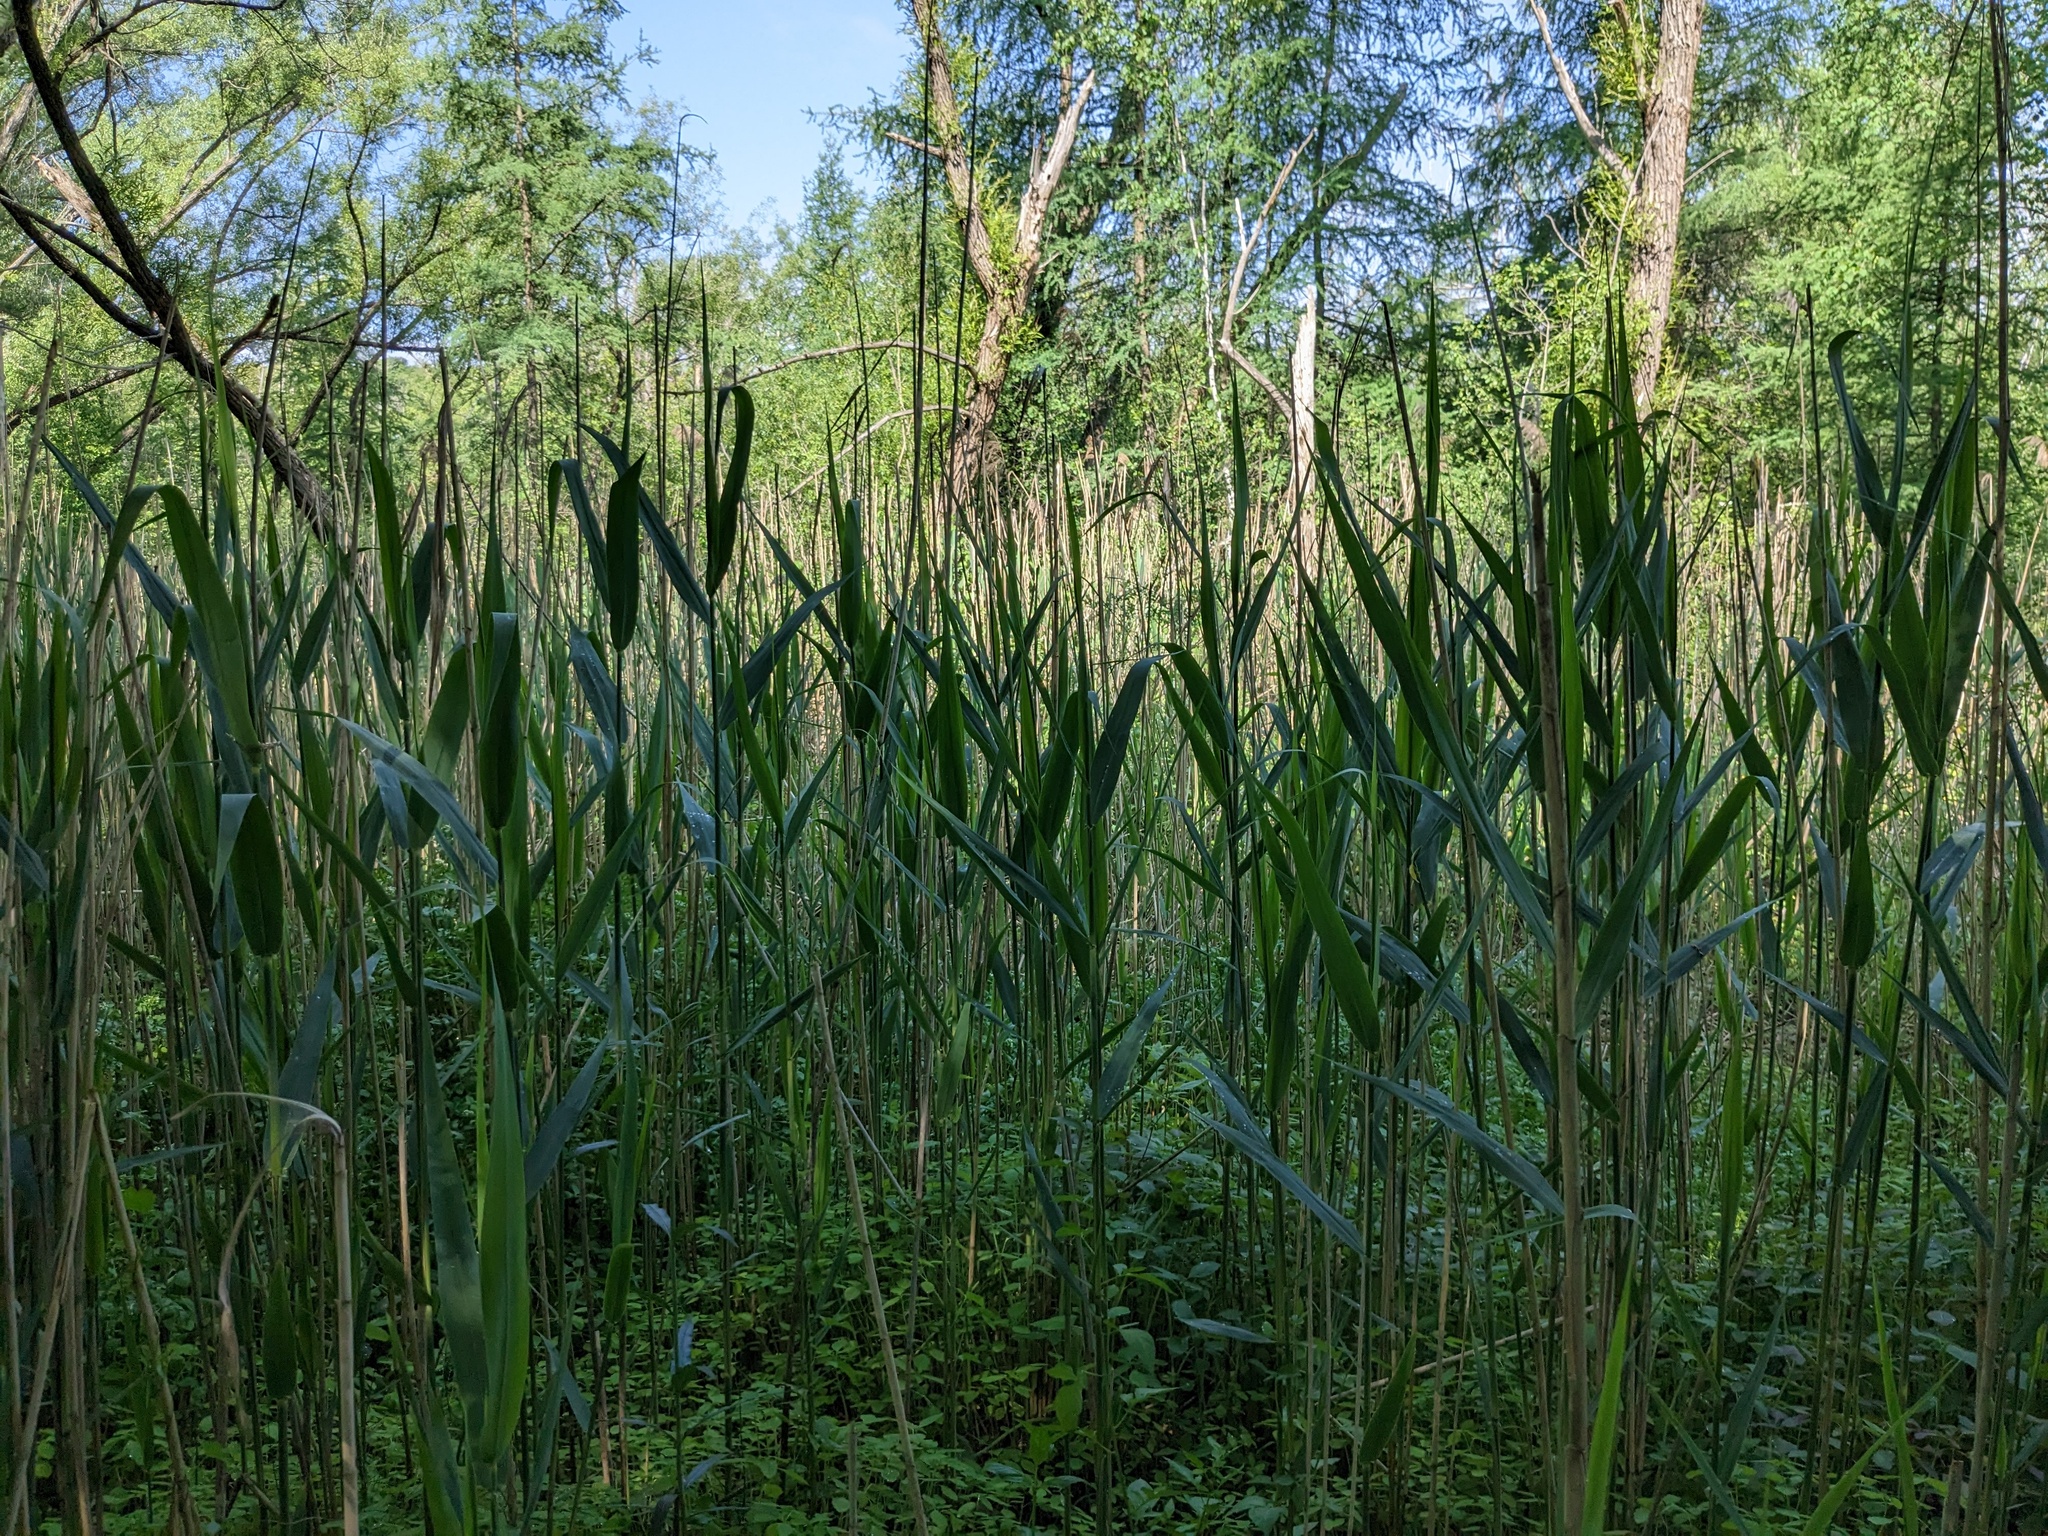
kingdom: Plantae
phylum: Tracheophyta
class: Liliopsida
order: Poales
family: Poaceae
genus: Phragmites
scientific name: Phragmites australis
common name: Common reed
